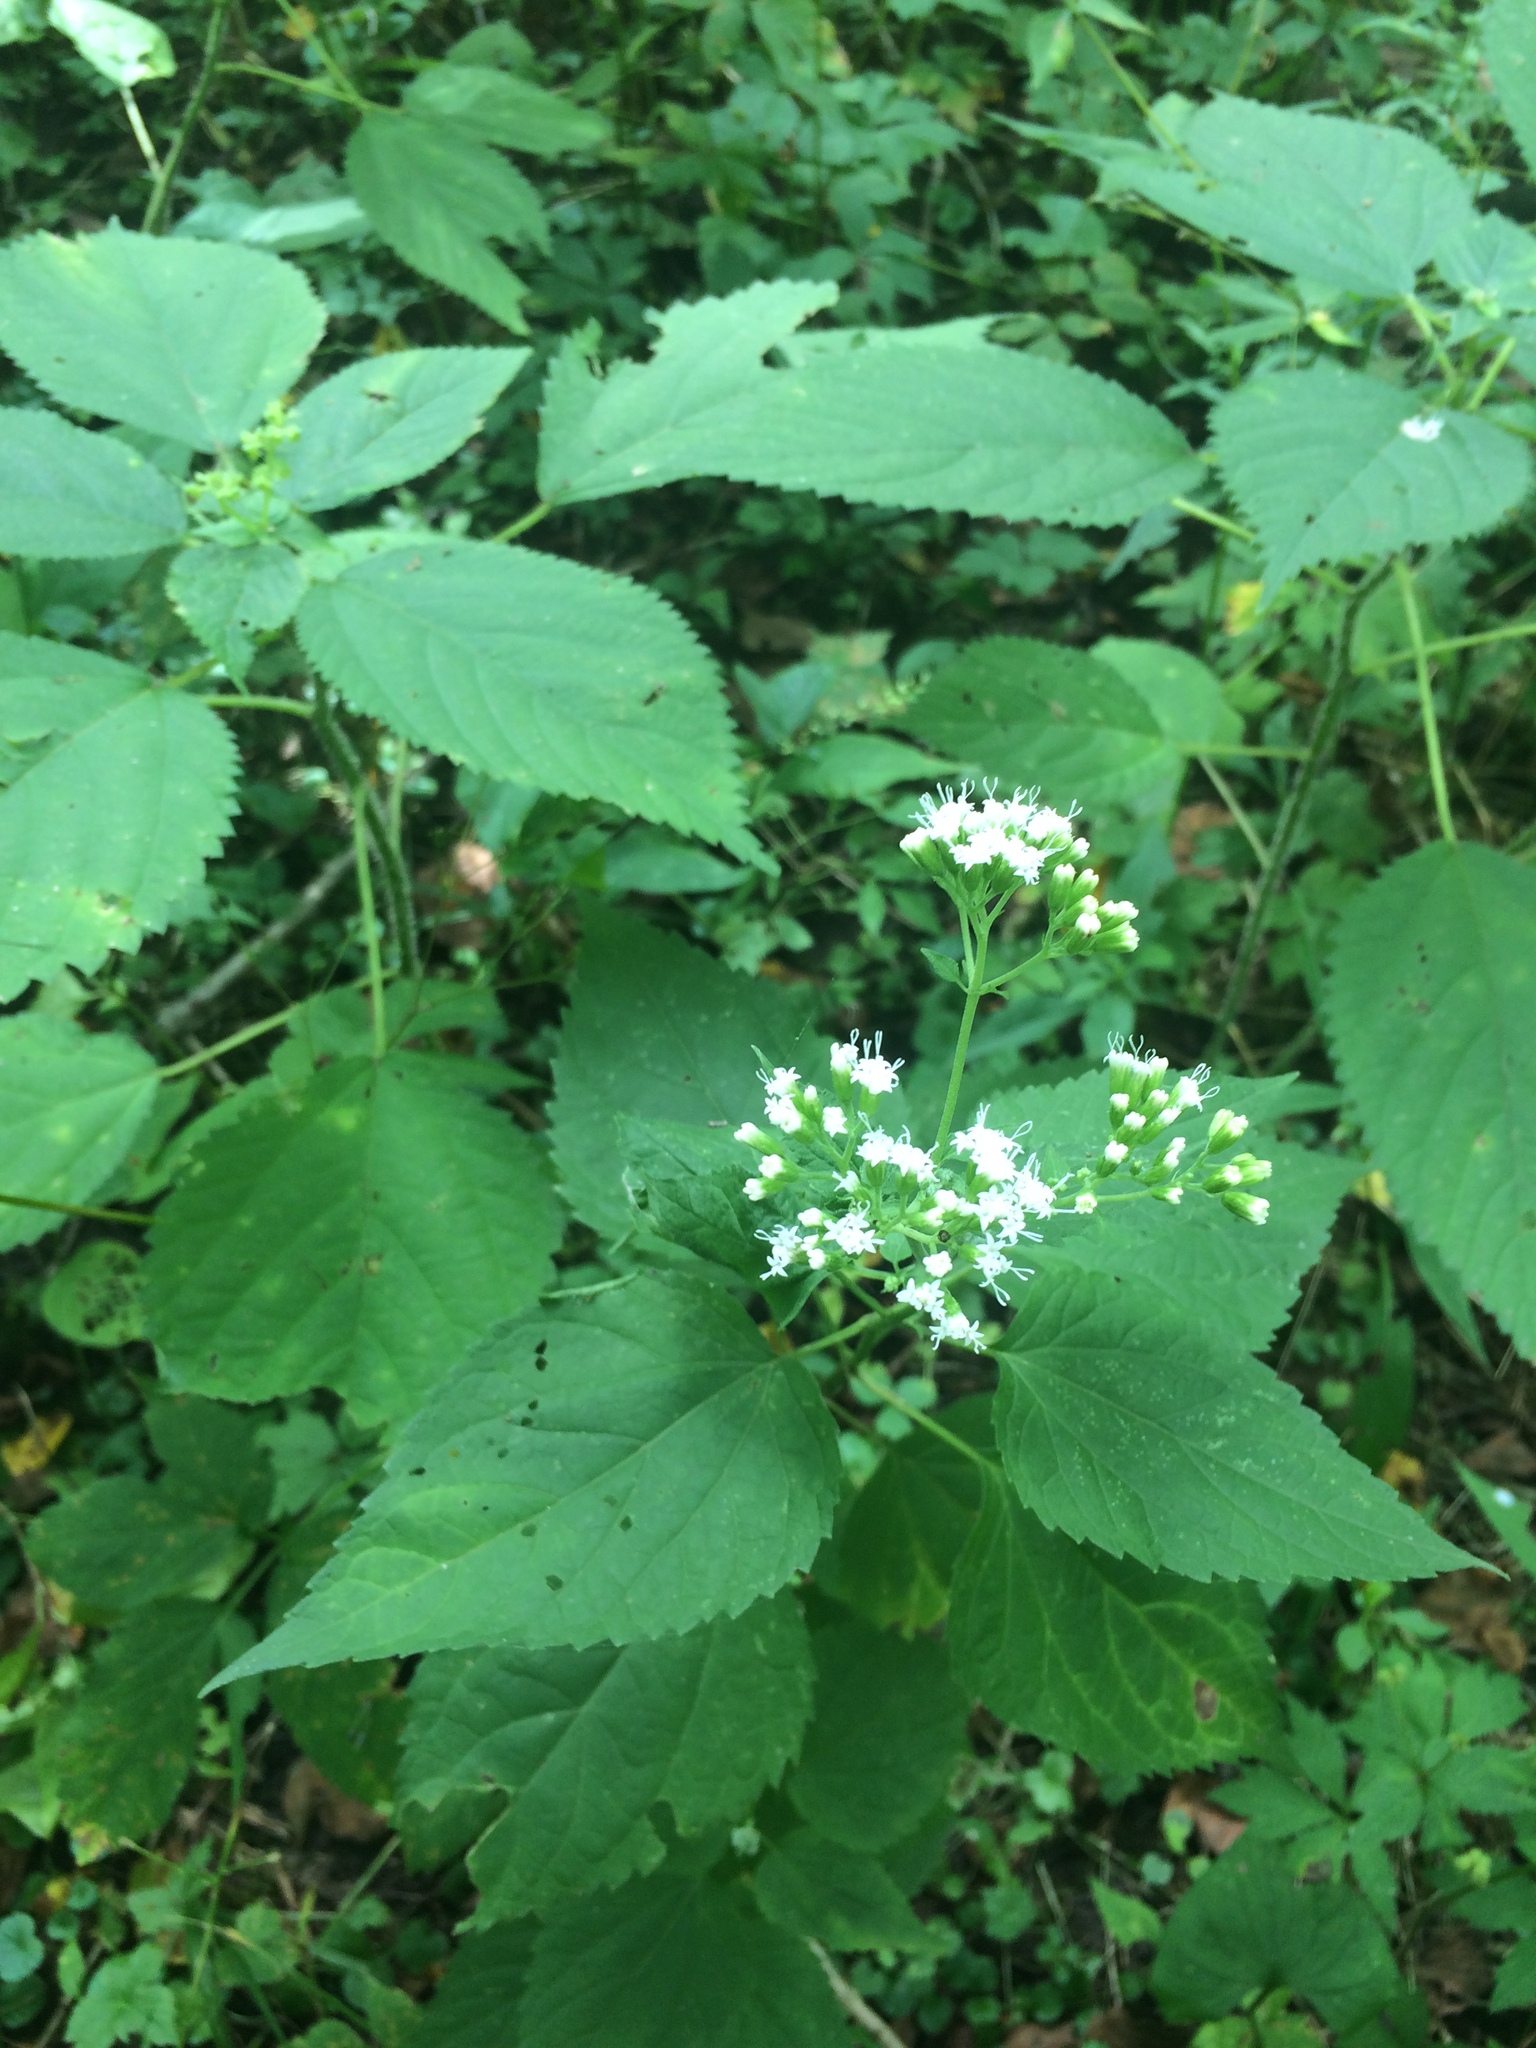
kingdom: Plantae
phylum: Tracheophyta
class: Magnoliopsida
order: Asterales
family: Asteraceae
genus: Ageratina
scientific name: Ageratina altissima
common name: White snakeroot
